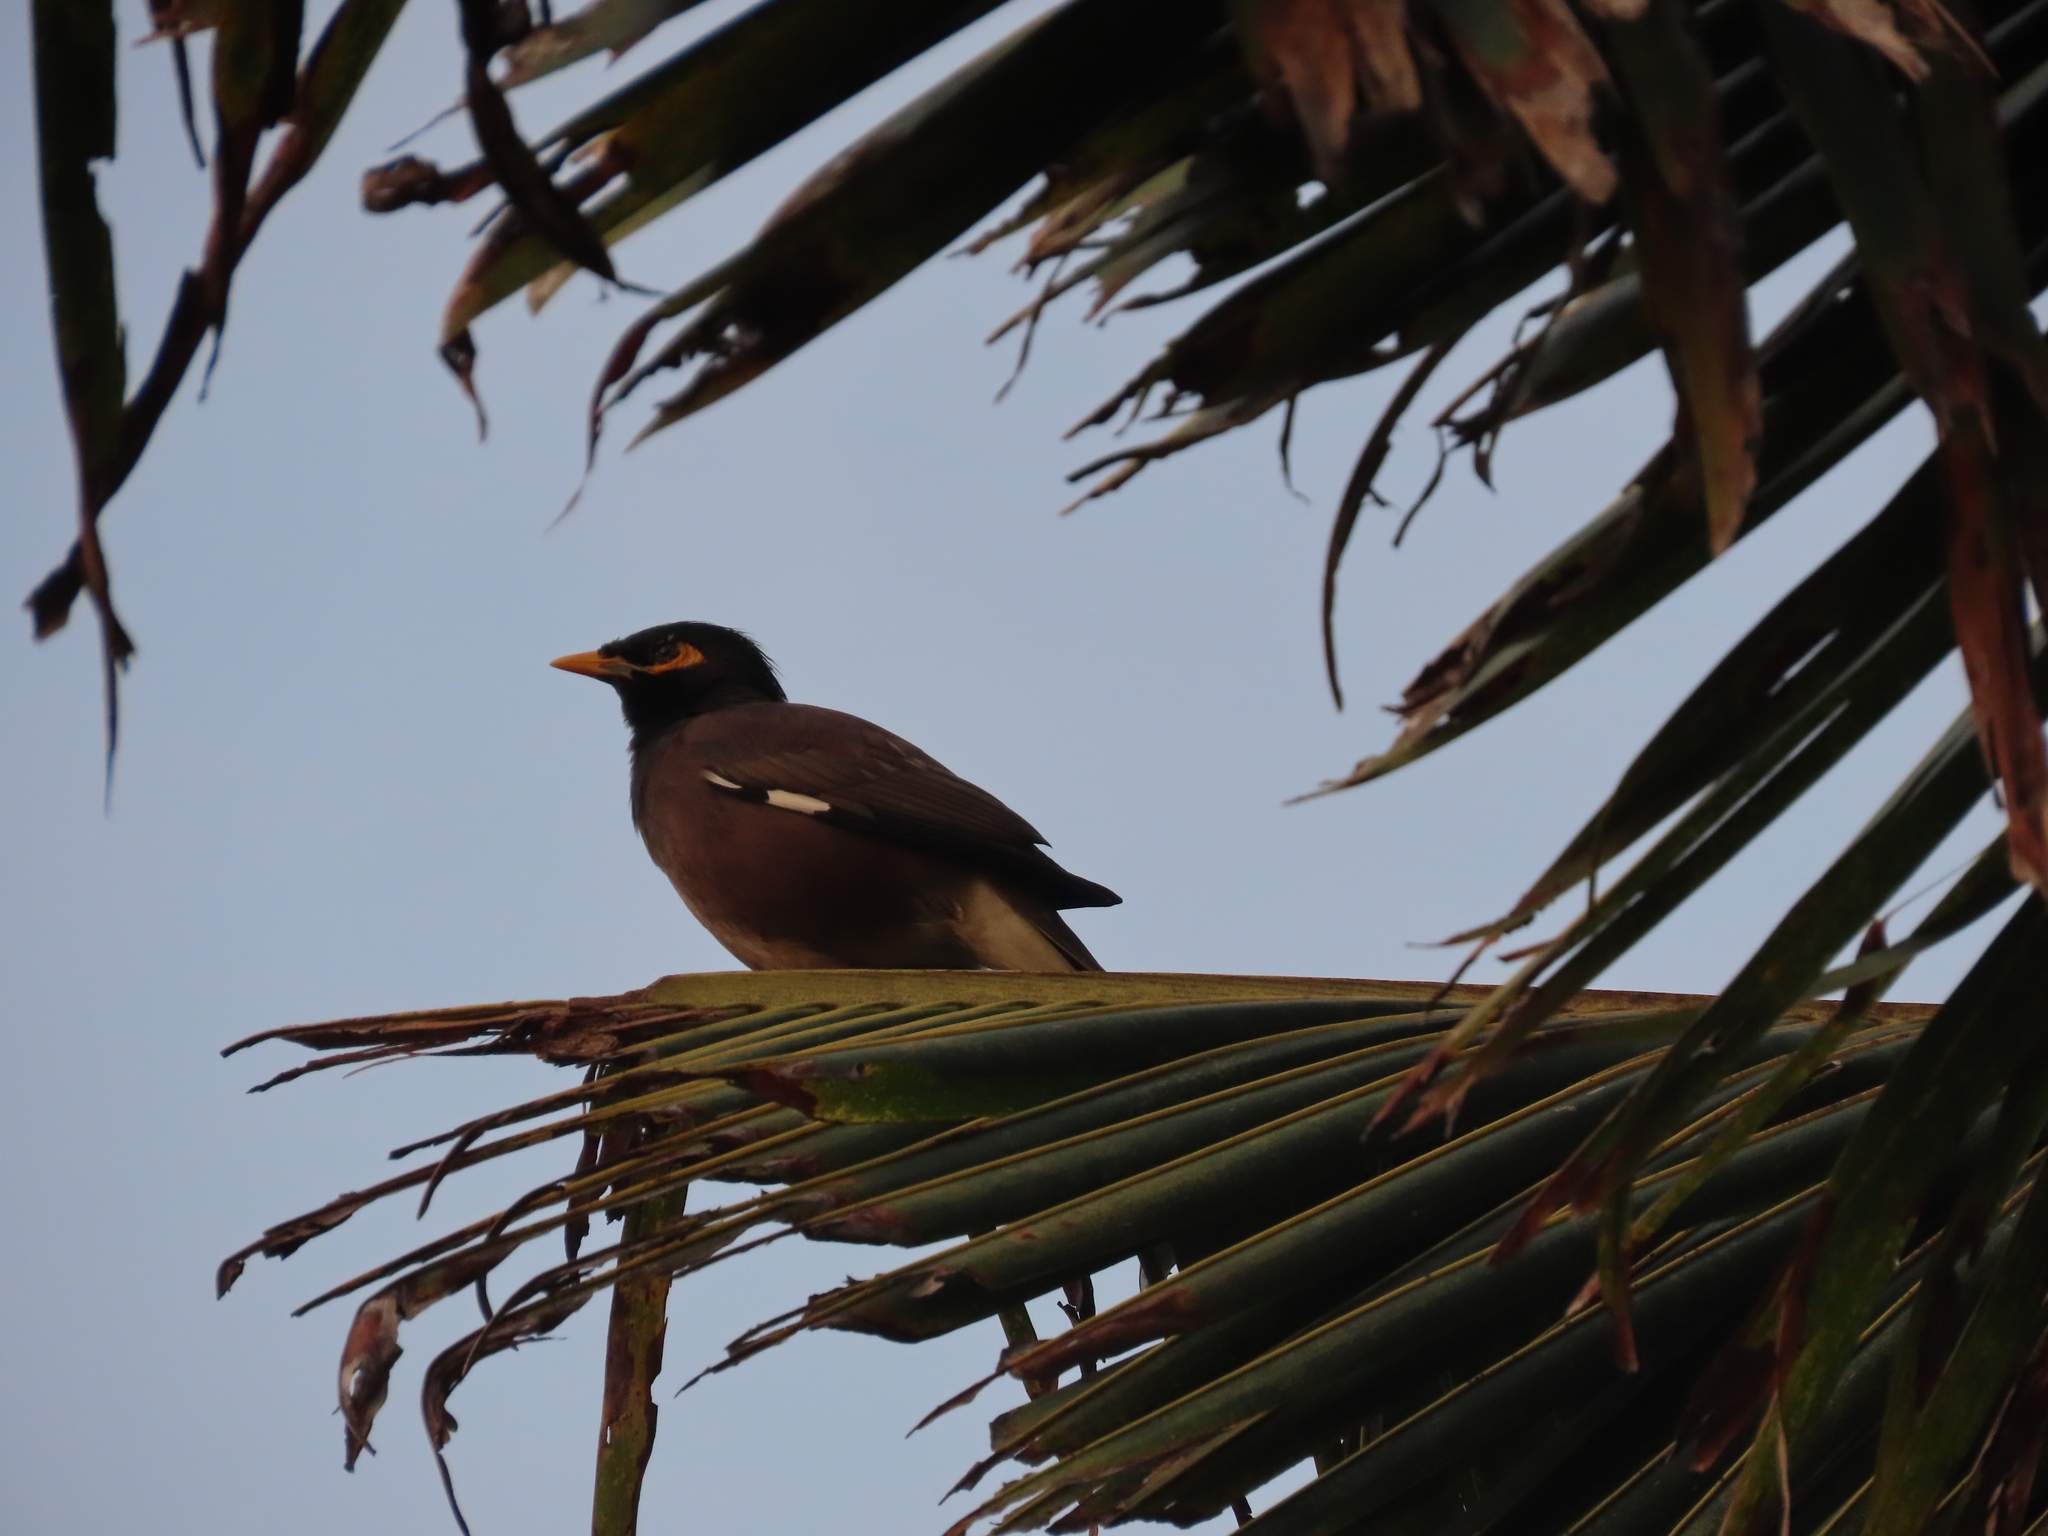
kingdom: Animalia
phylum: Chordata
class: Aves
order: Passeriformes
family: Sturnidae
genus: Acridotheres
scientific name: Acridotheres tristis
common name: Common myna
